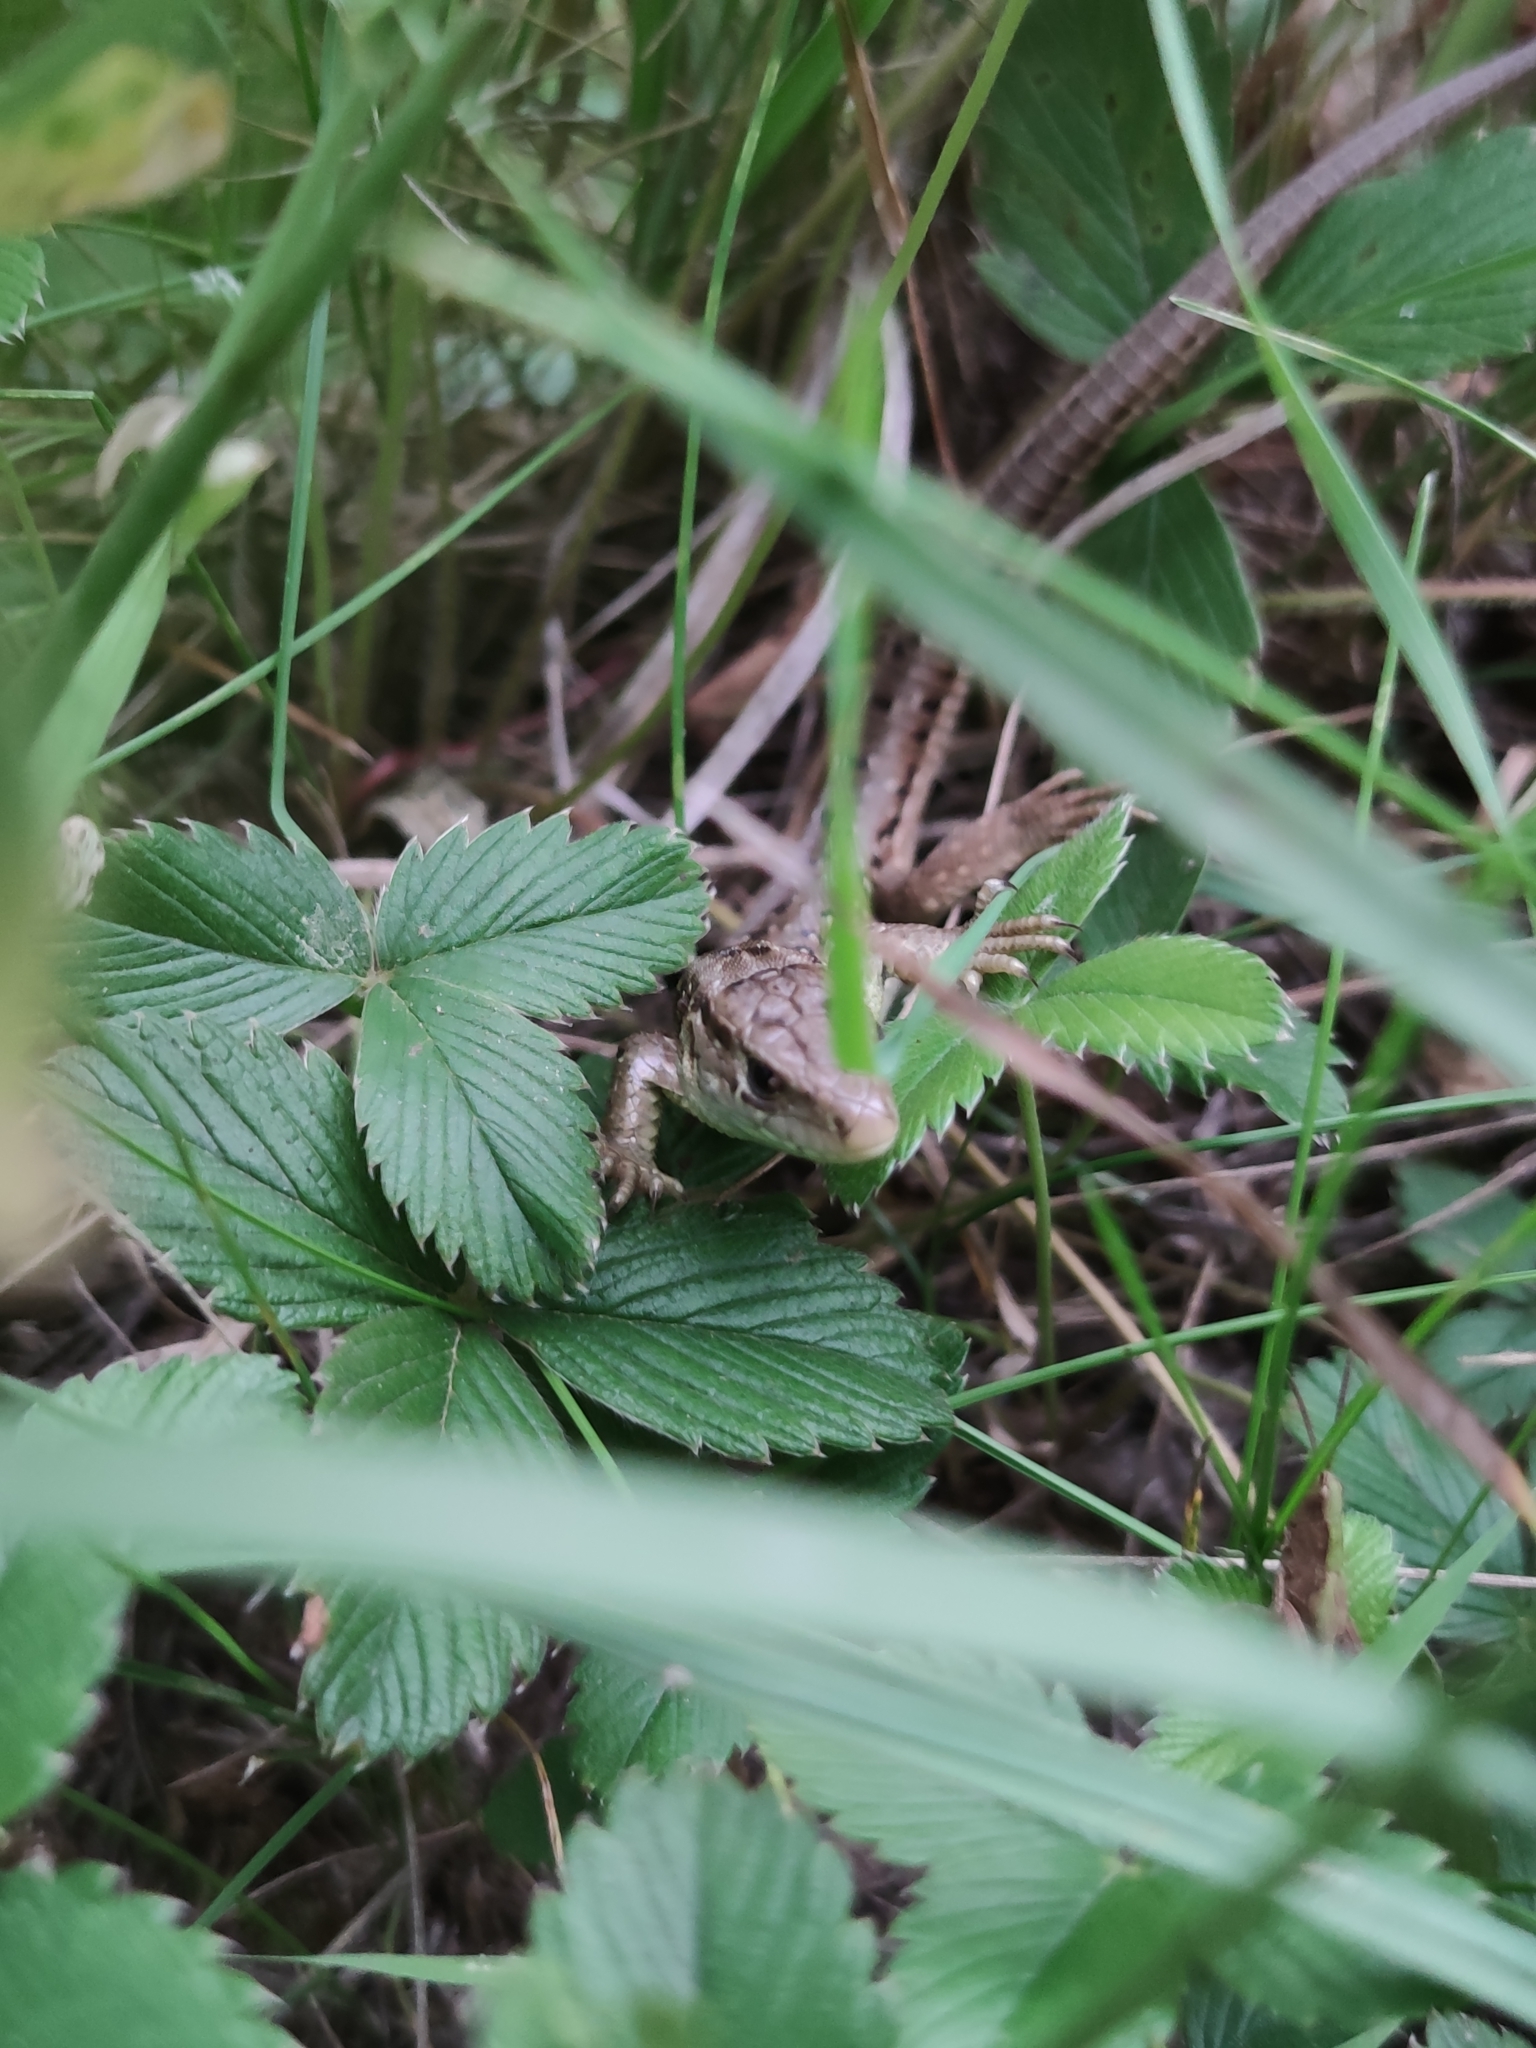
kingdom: Animalia
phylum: Chordata
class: Squamata
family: Lacertidae
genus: Lacerta
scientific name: Lacerta agilis
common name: Sand lizard
